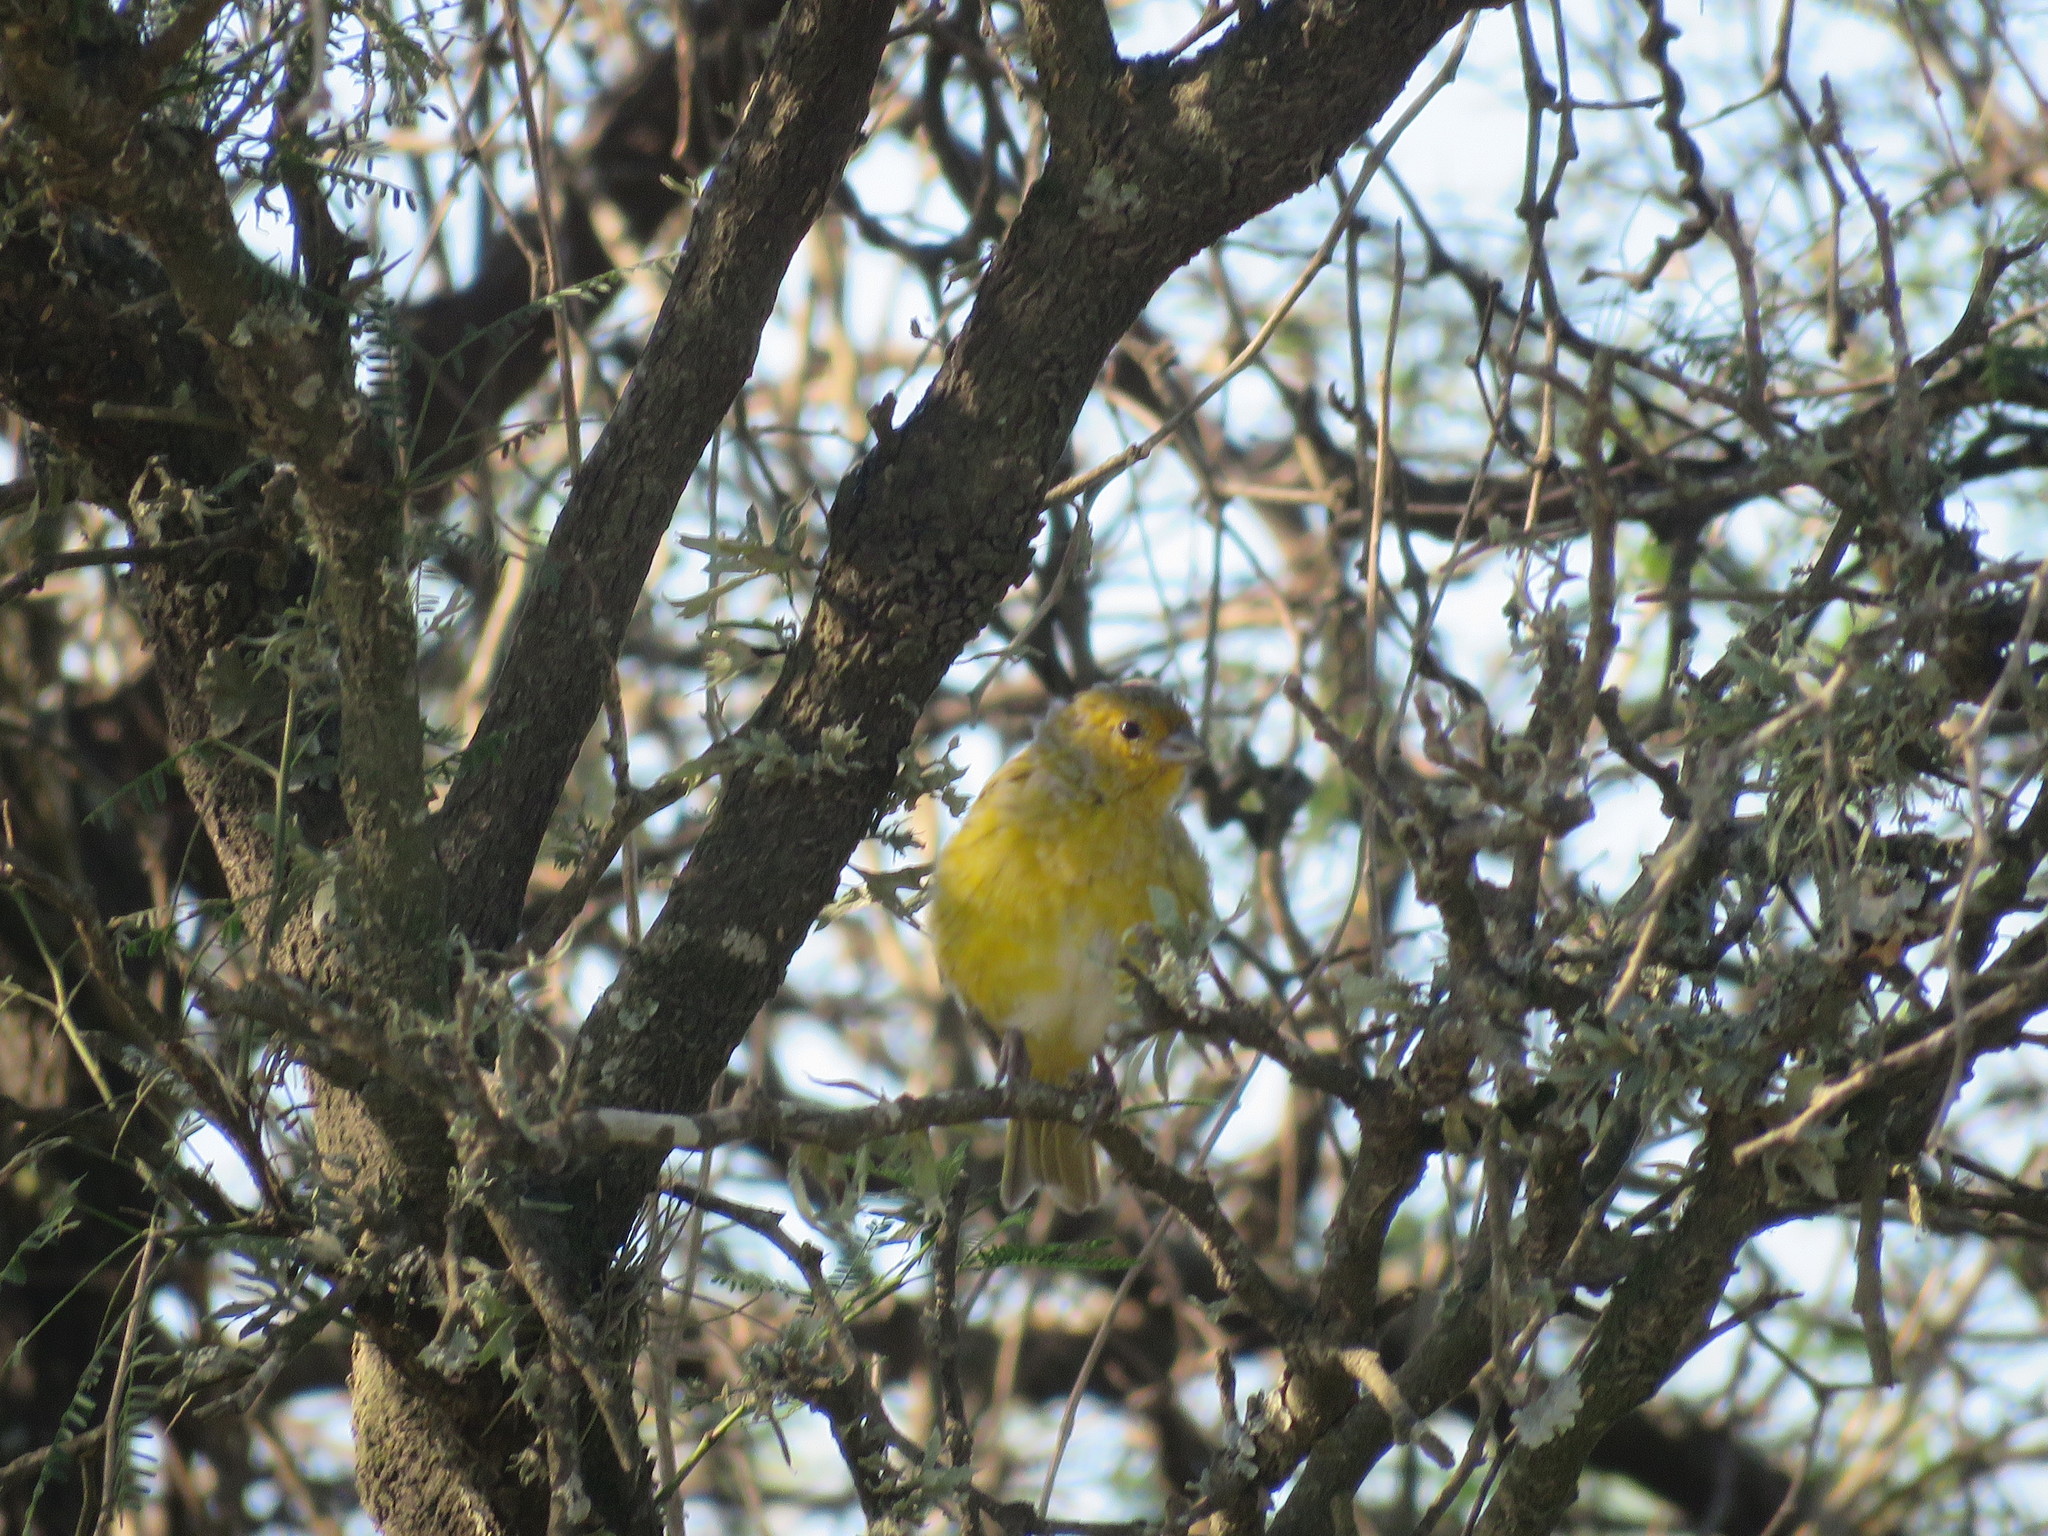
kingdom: Animalia
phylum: Chordata
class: Aves
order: Passeriformes
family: Thraupidae
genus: Sicalis
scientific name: Sicalis flaveola
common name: Saffron finch
